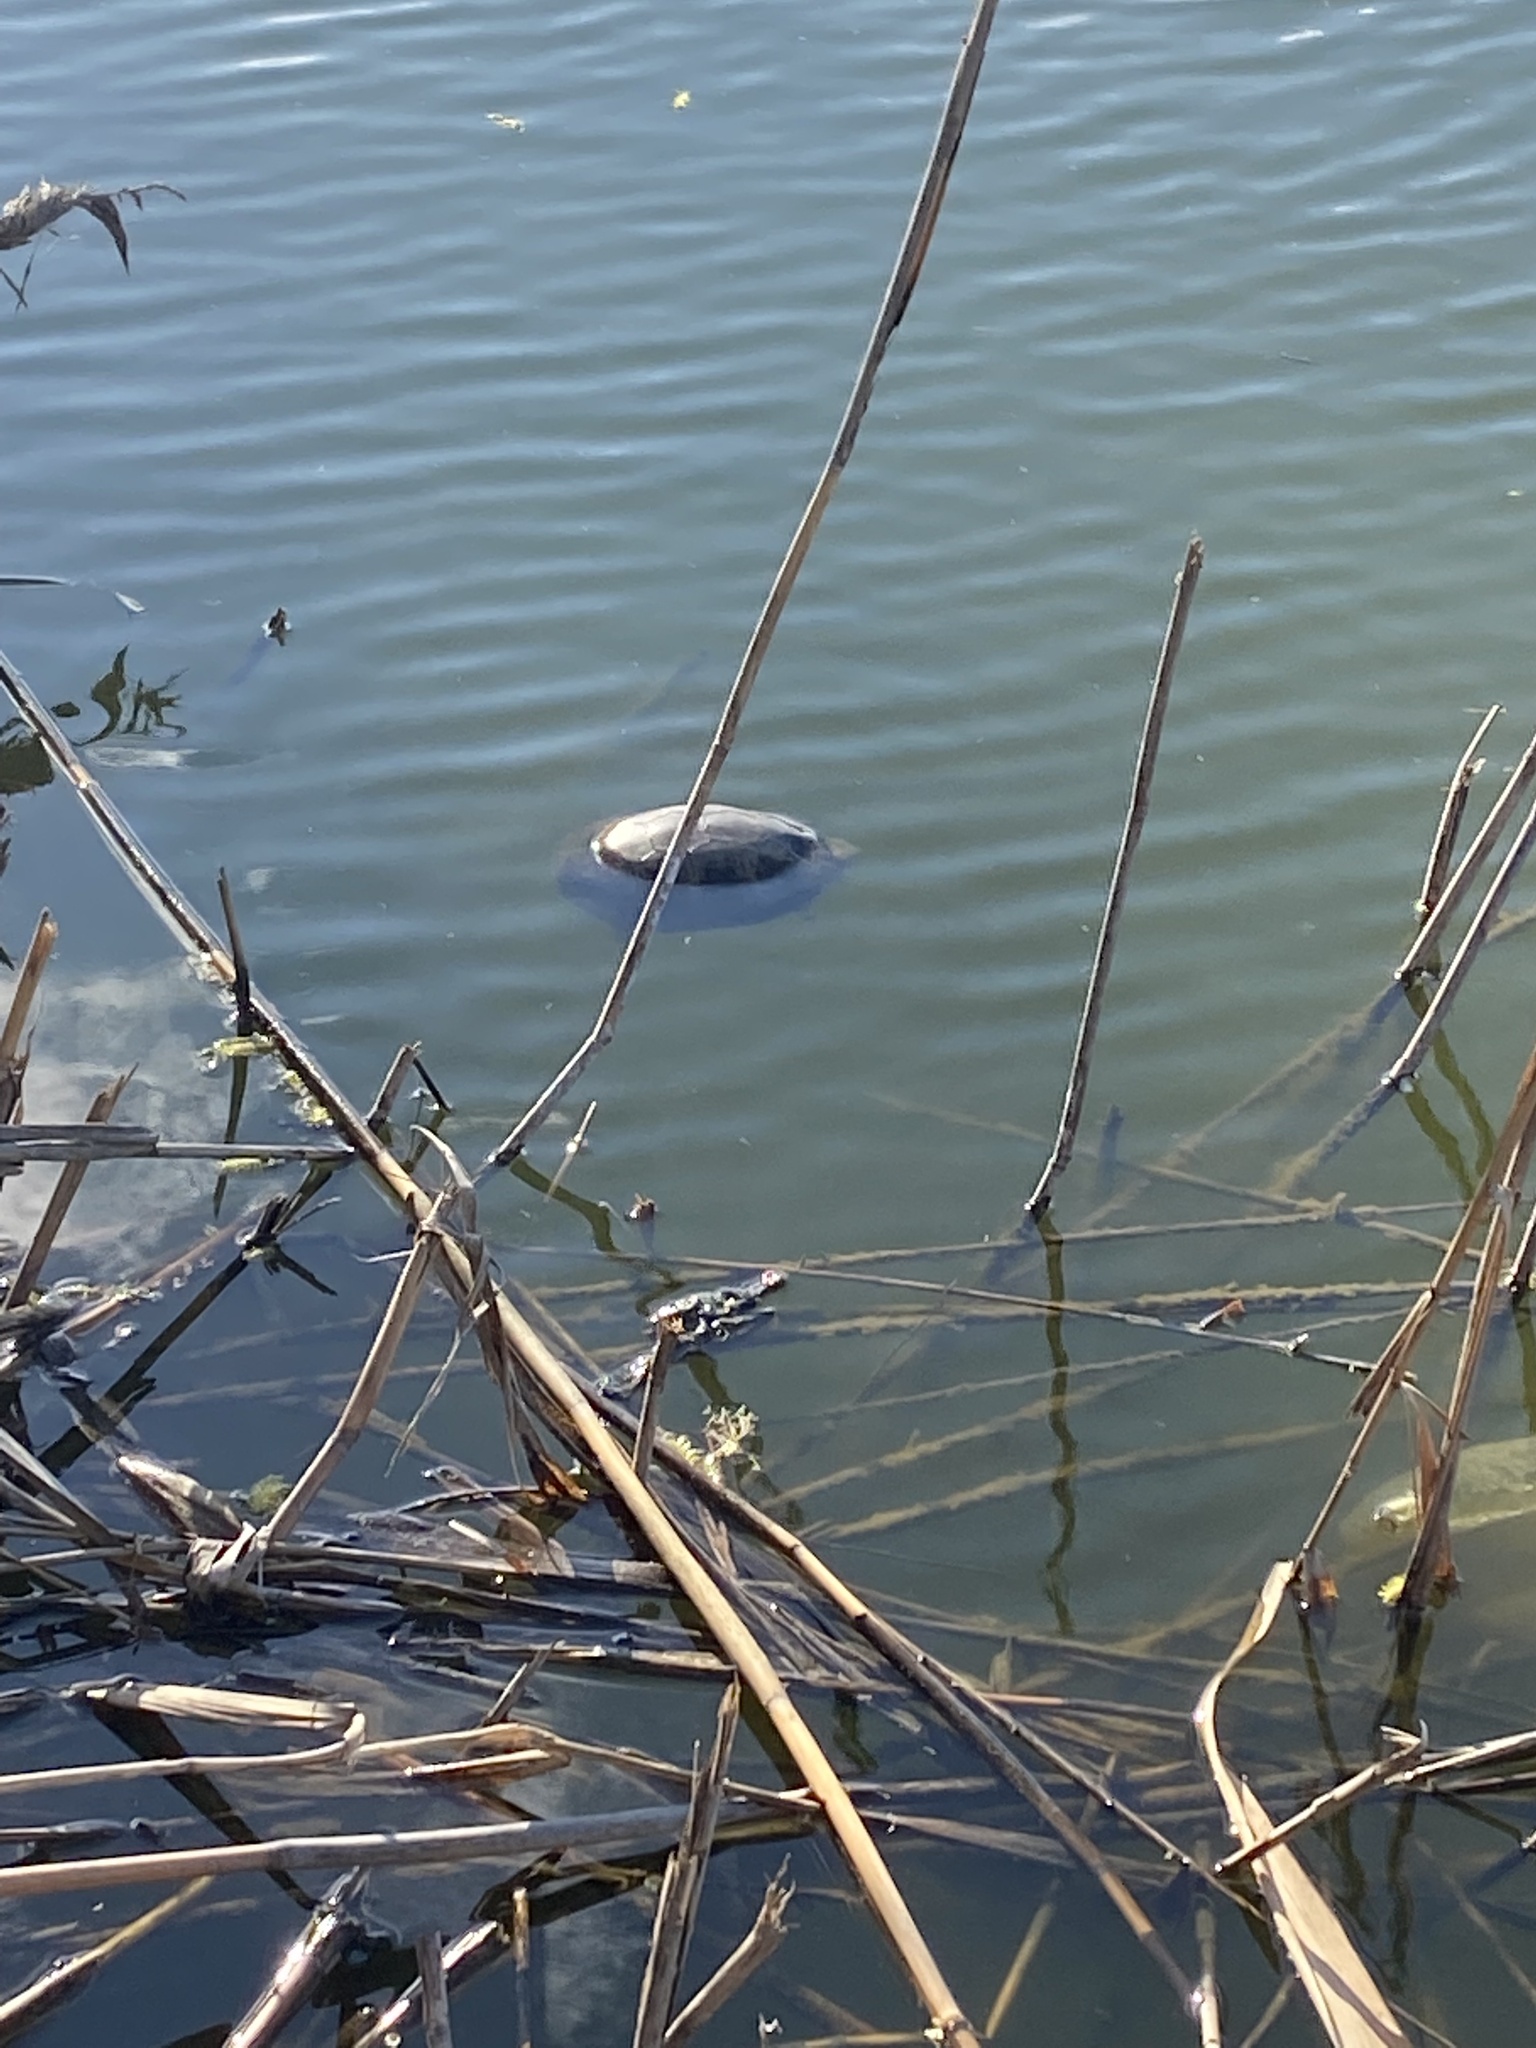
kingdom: Animalia
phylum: Chordata
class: Testudines
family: Emydidae
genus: Emys
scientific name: Emys orbicularis
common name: European pond turtle
